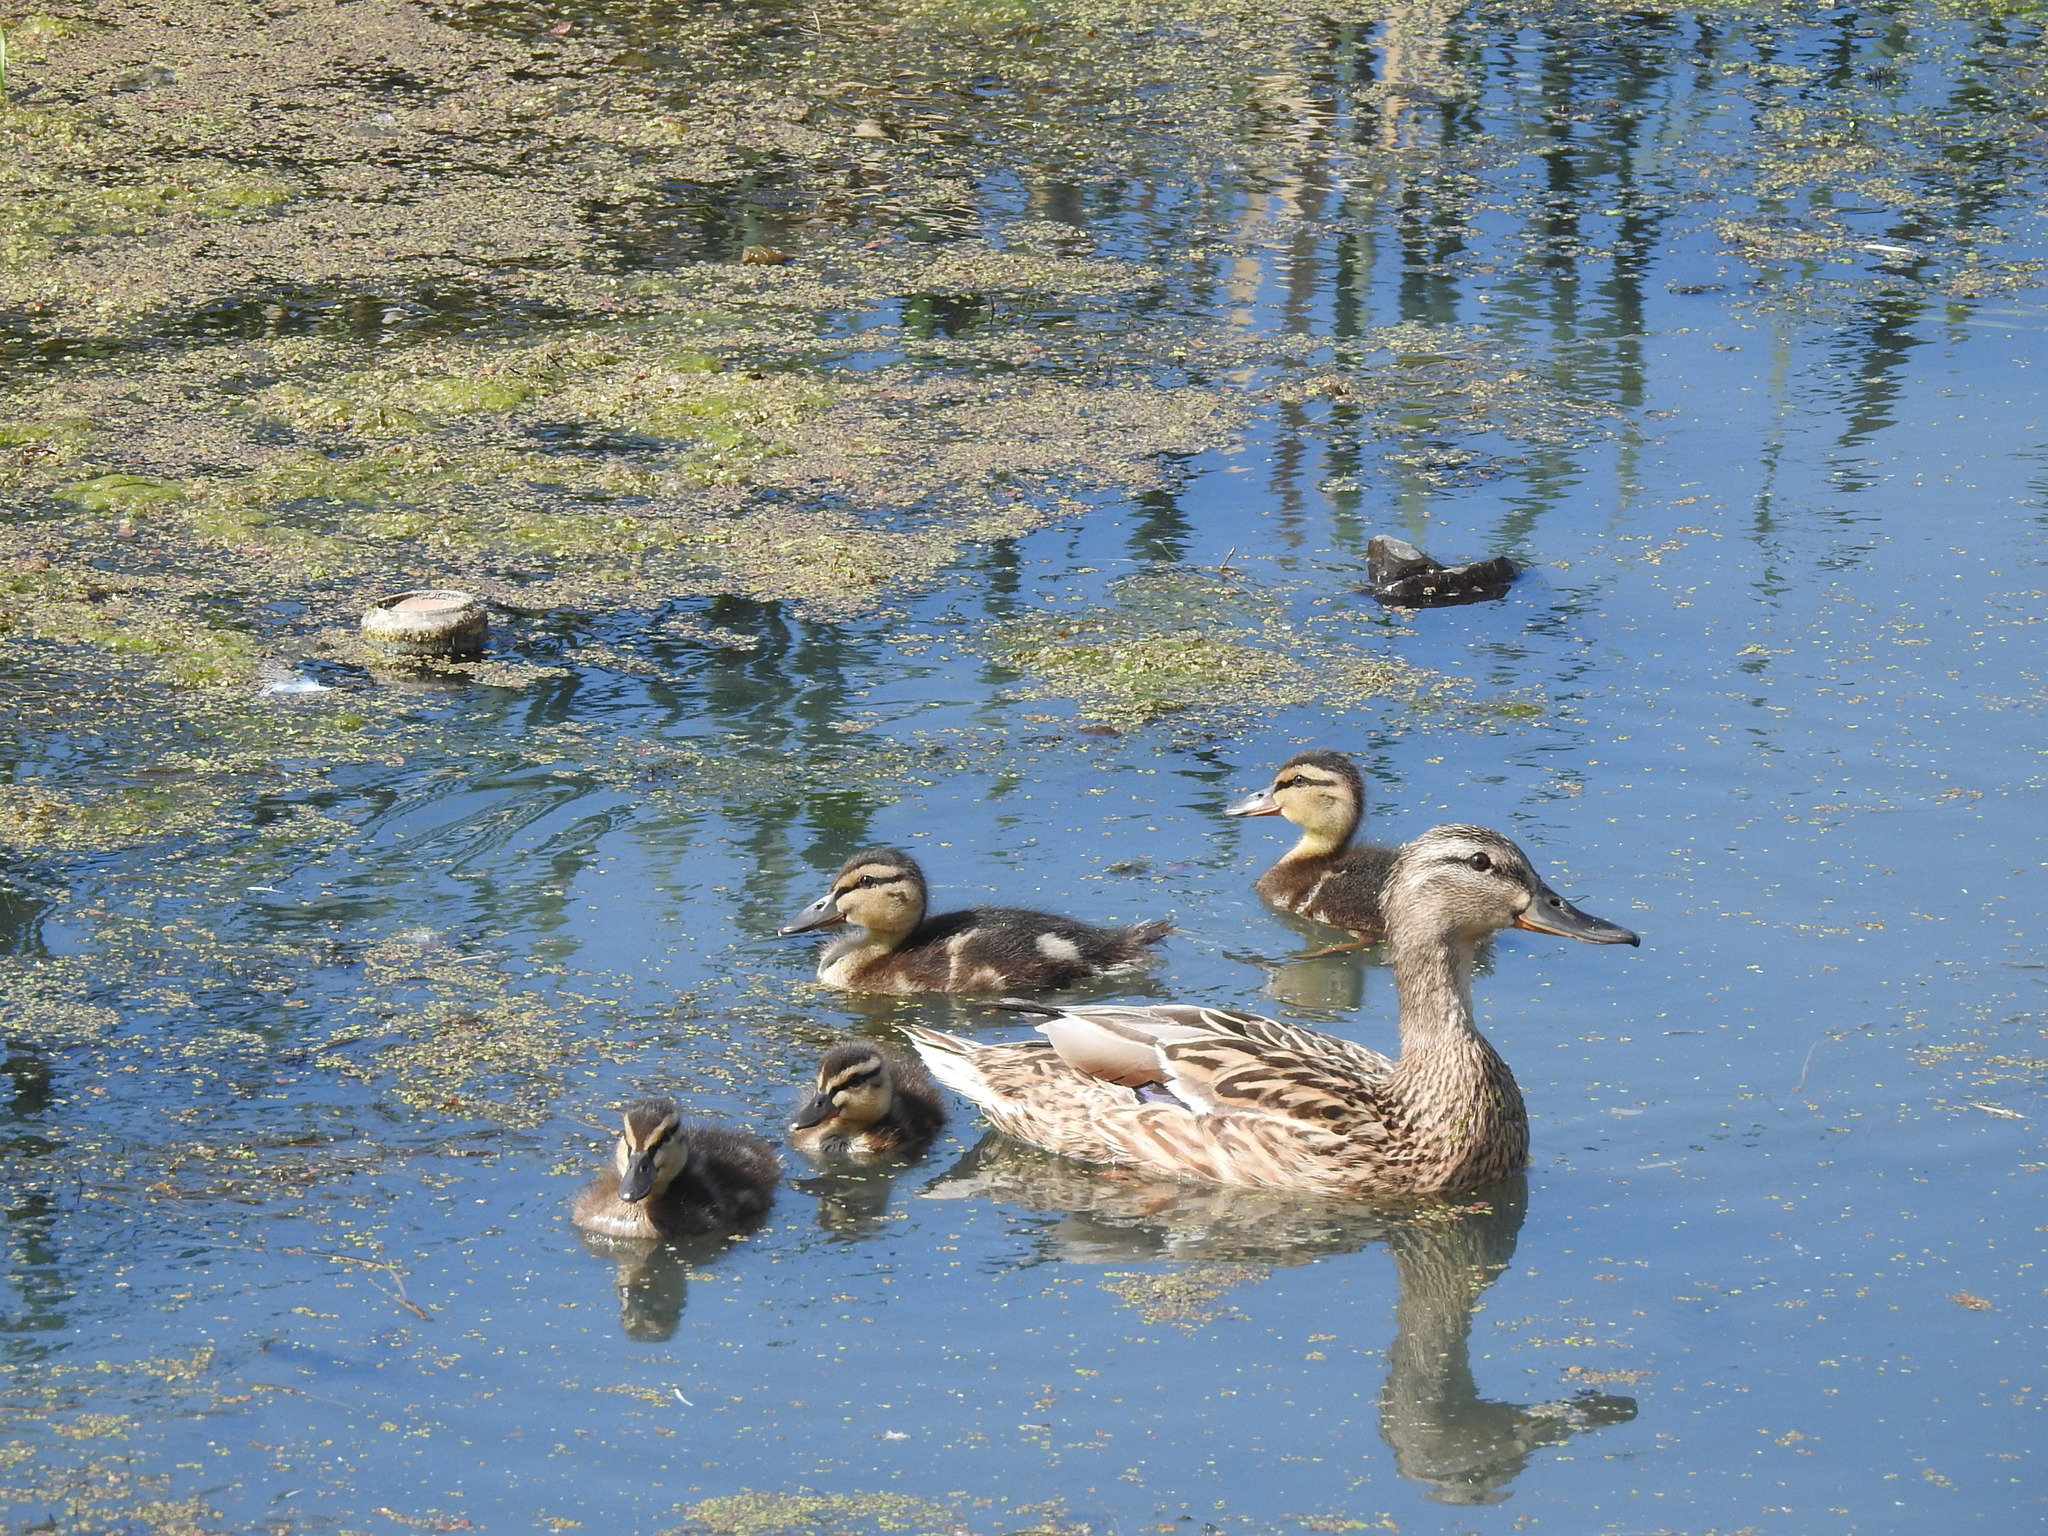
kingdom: Animalia
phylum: Chordata
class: Aves
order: Anseriformes
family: Anatidae
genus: Anas
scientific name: Anas platyrhynchos
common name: Mallard
